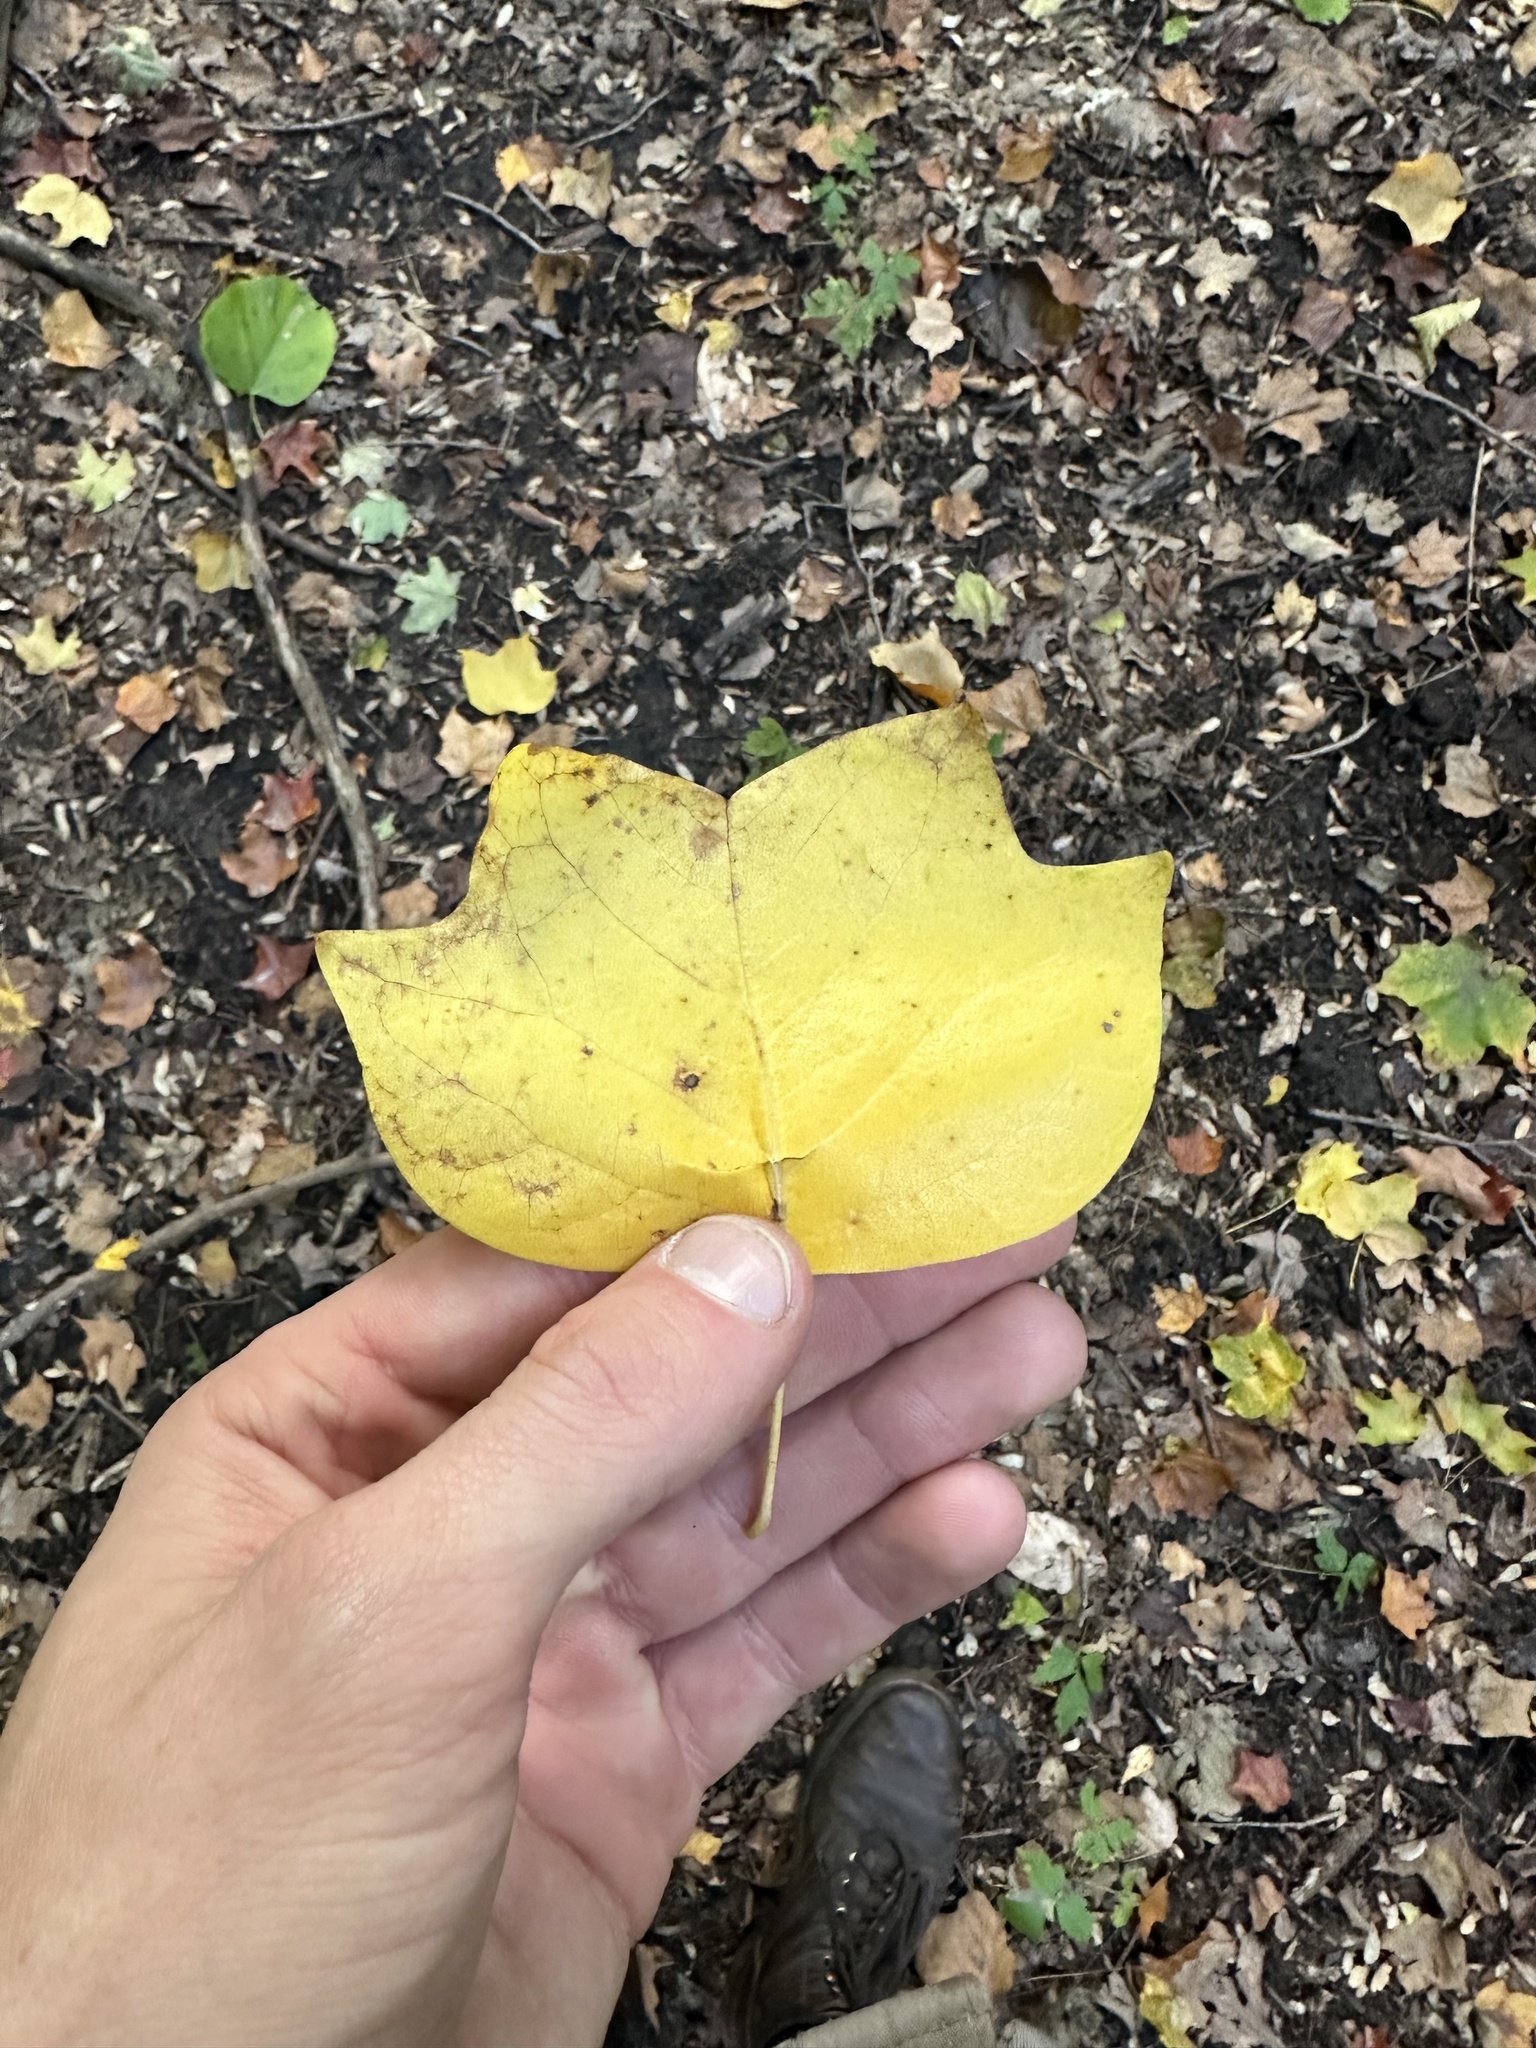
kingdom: Plantae
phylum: Tracheophyta
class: Magnoliopsida
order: Magnoliales
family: Magnoliaceae
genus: Liriodendron
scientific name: Liriodendron tulipifera
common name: Tulip tree
